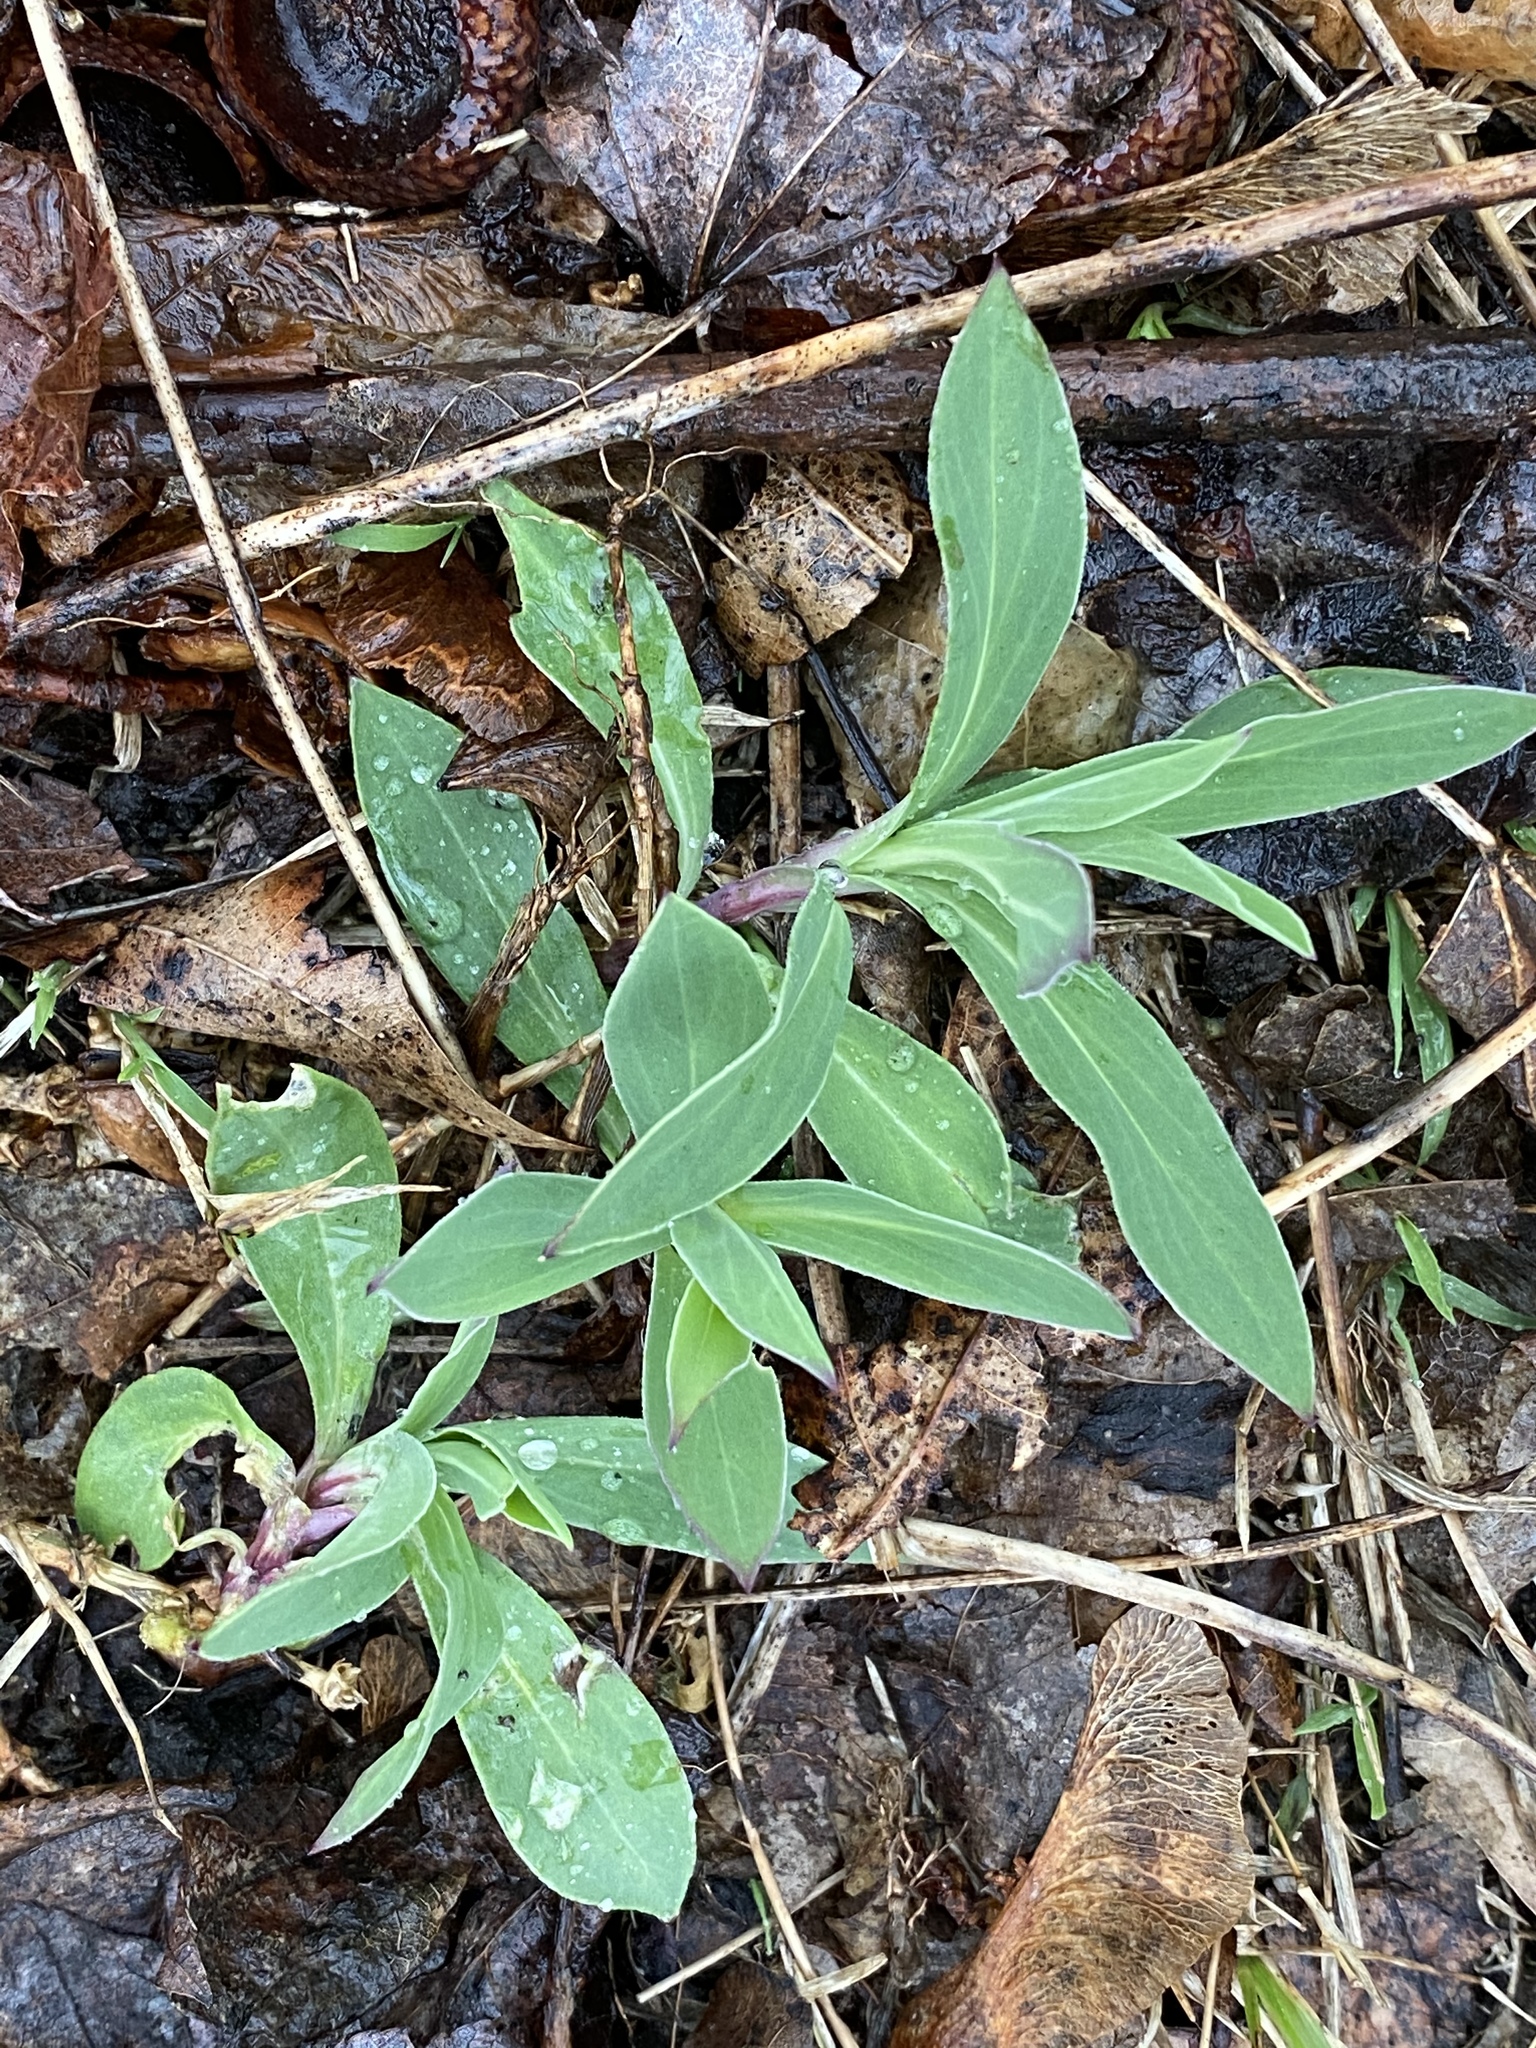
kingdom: Plantae
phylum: Tracheophyta
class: Magnoliopsida
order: Caryophyllales
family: Caryophyllaceae
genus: Silene
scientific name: Silene vulgaris
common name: Bladder campion
